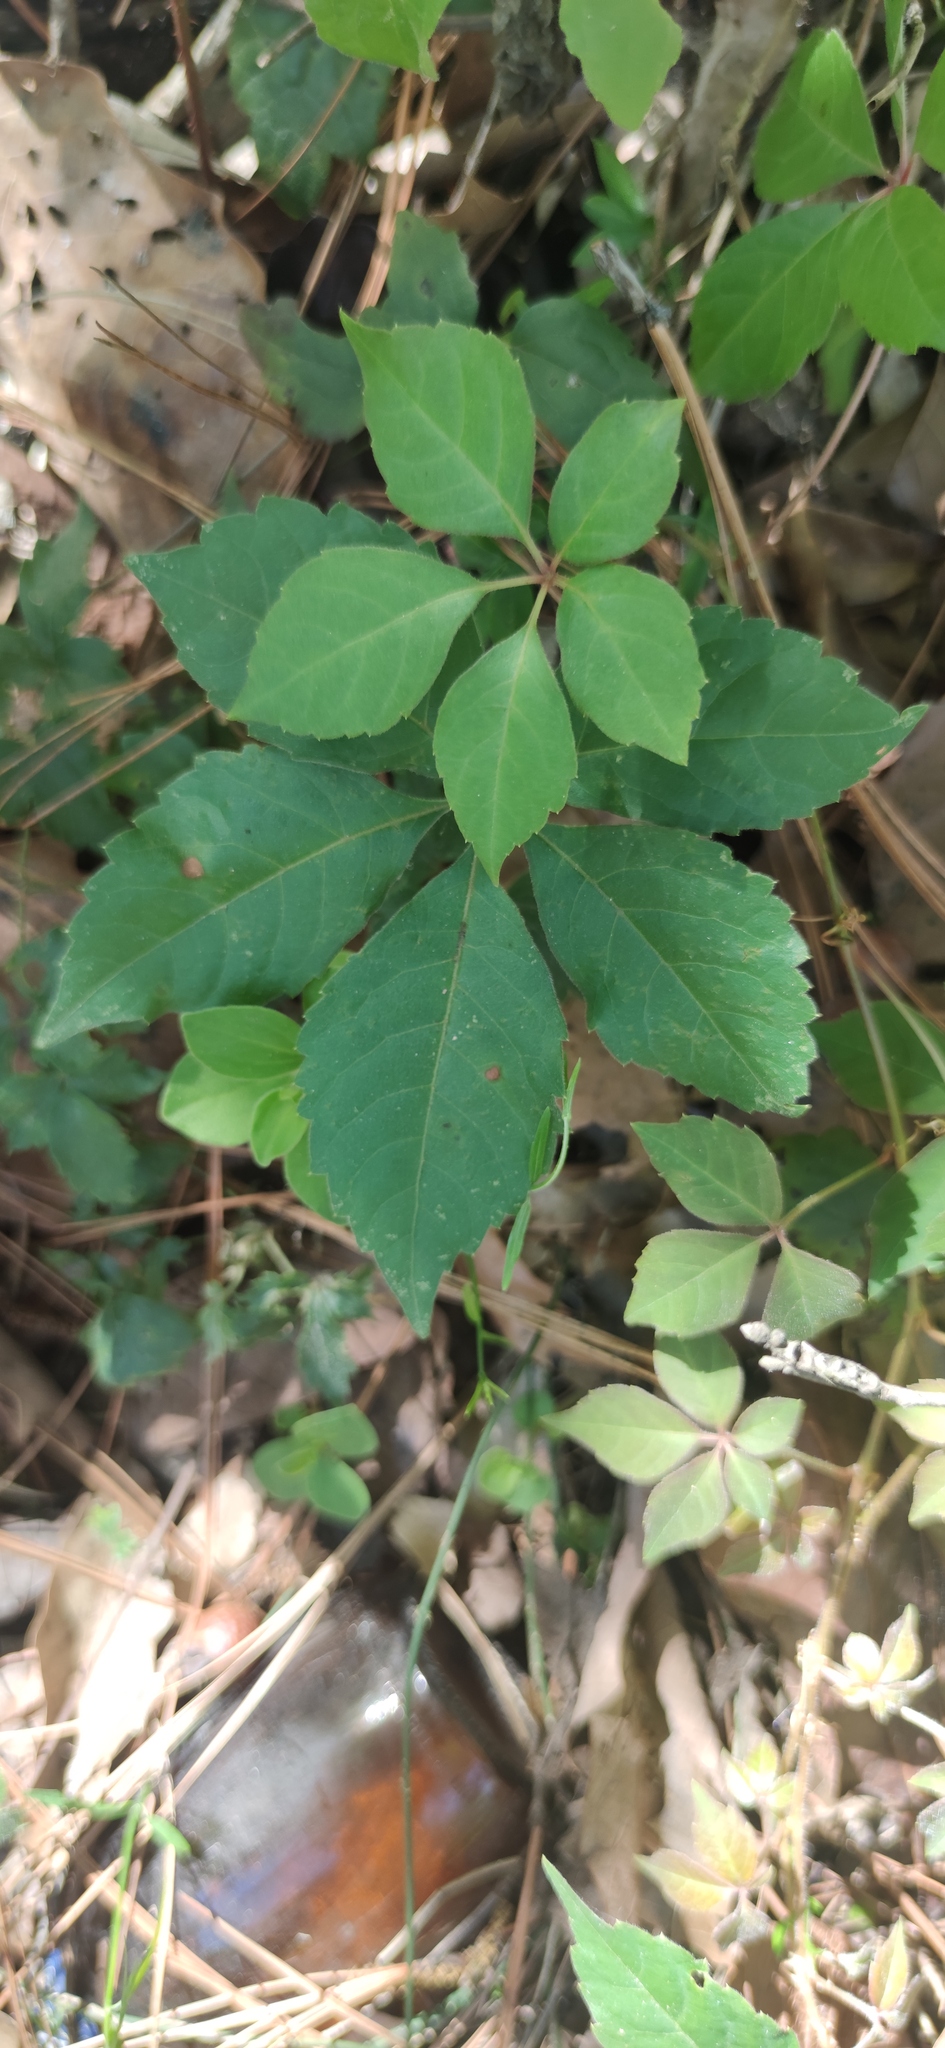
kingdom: Plantae
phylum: Tracheophyta
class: Magnoliopsida
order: Vitales
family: Vitaceae
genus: Parthenocissus
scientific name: Parthenocissus quinquefolia
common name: Virginia-creeper
